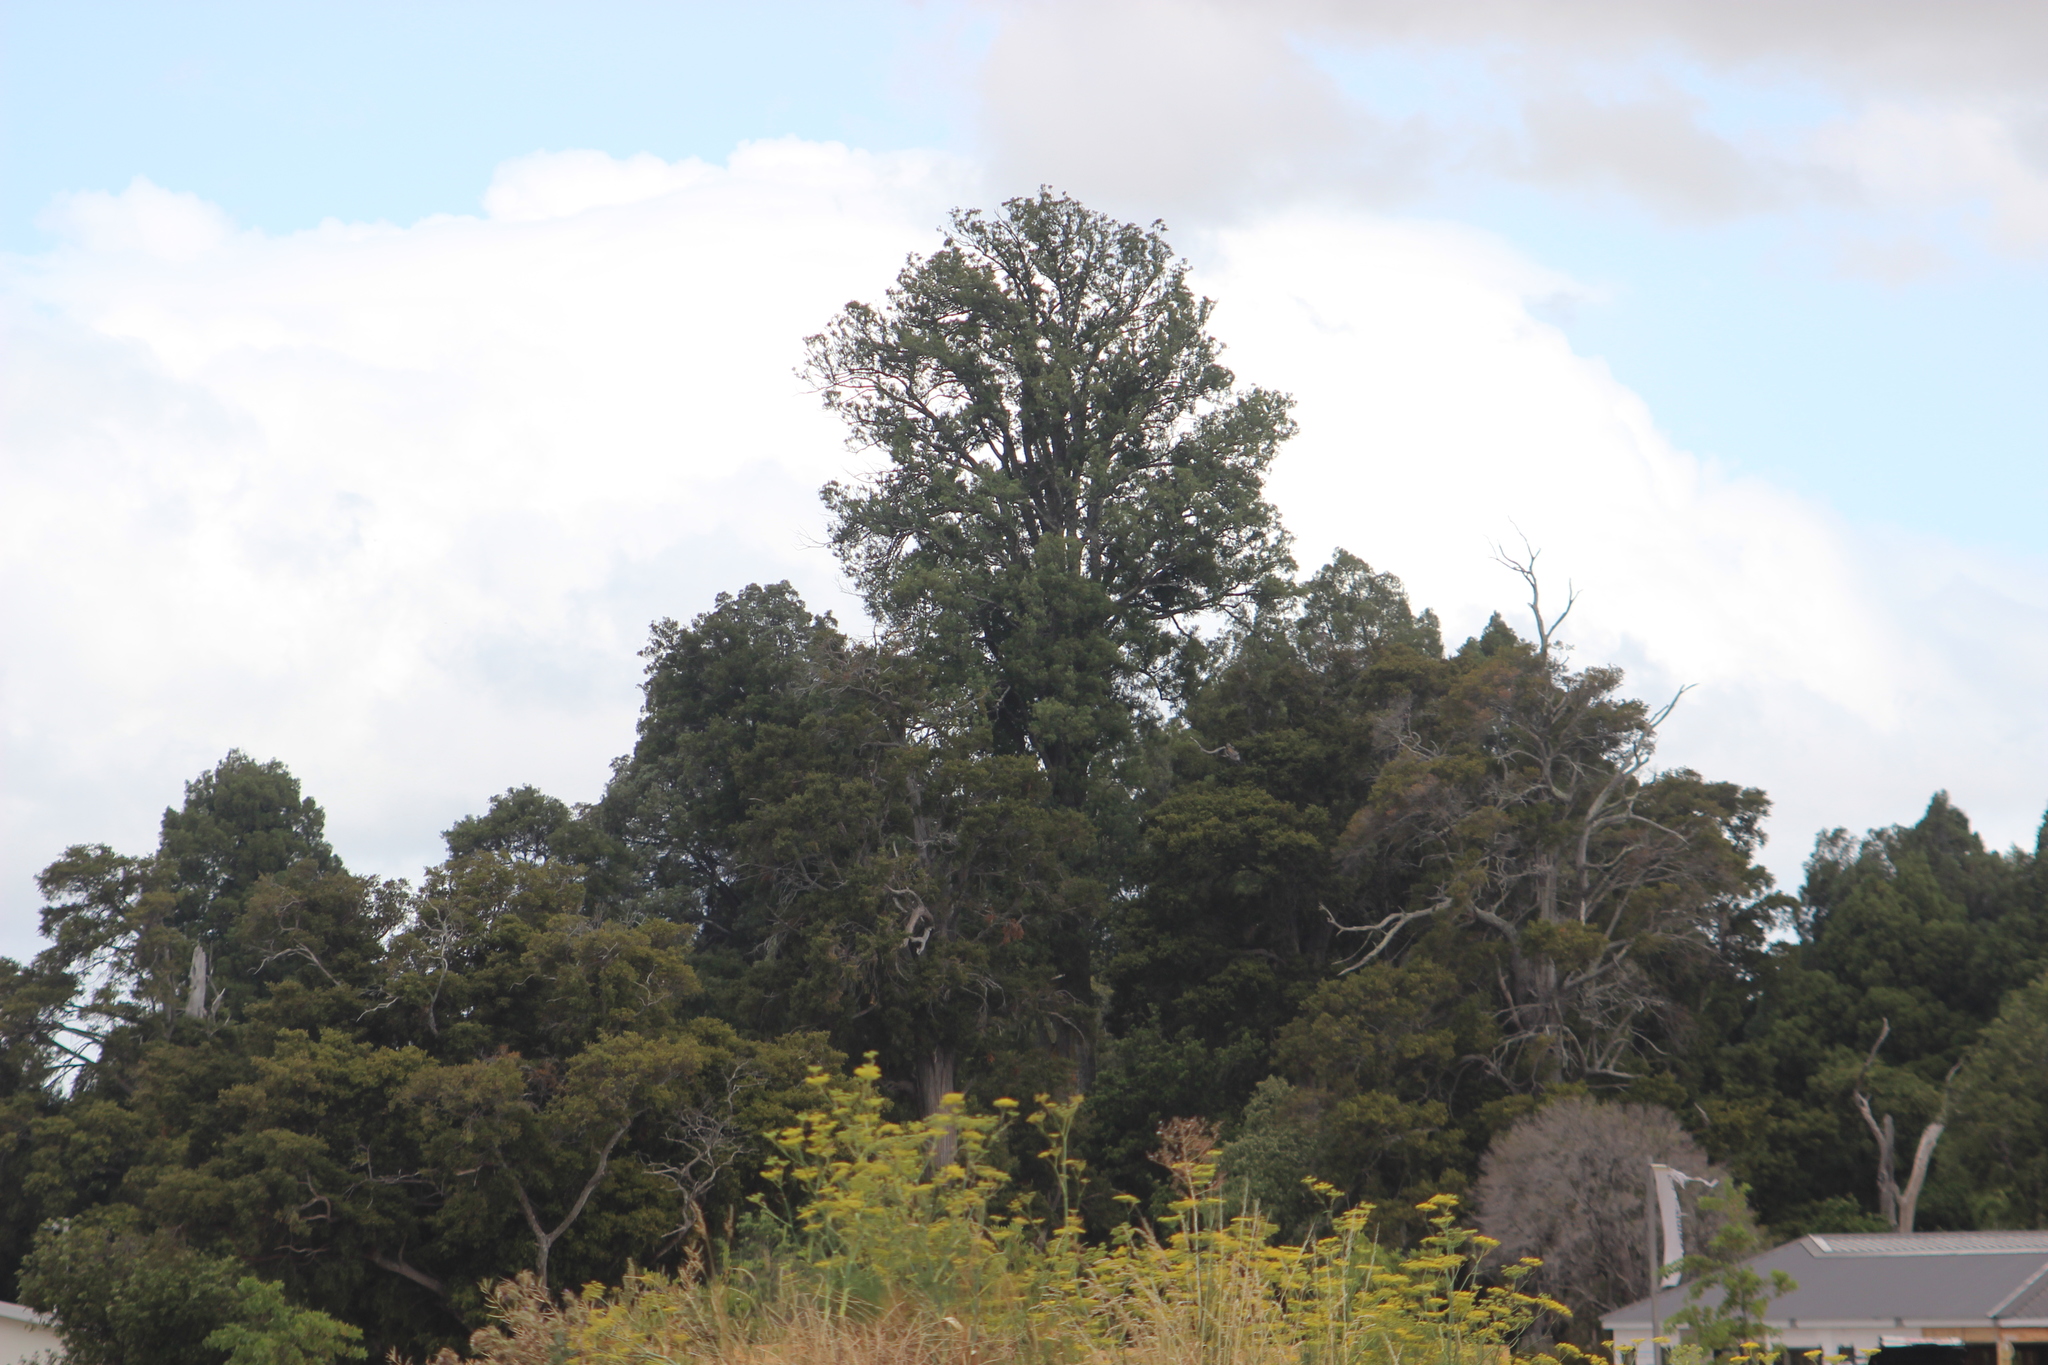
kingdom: Plantae
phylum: Tracheophyta
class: Pinopsida
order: Pinales
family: Podocarpaceae
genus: Dacrycarpus
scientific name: Dacrycarpus dacrydioides
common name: White pine
